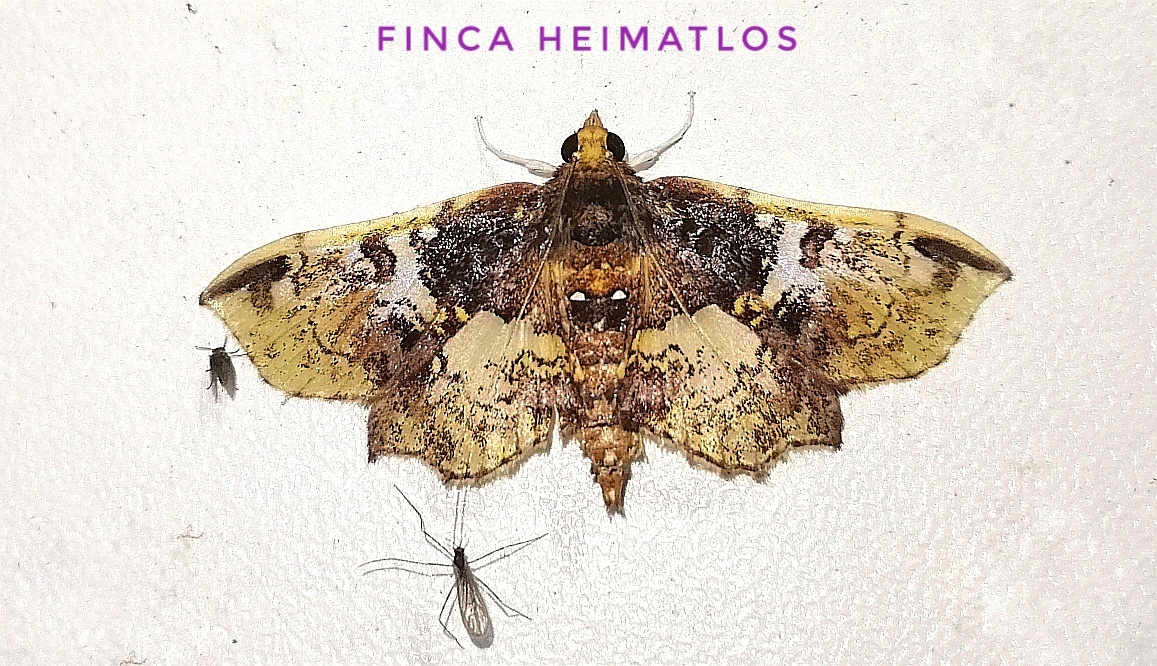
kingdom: Animalia
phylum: Arthropoda
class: Insecta
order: Lepidoptera
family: Crambidae
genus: Megastes
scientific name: Megastes erythrostolalis
